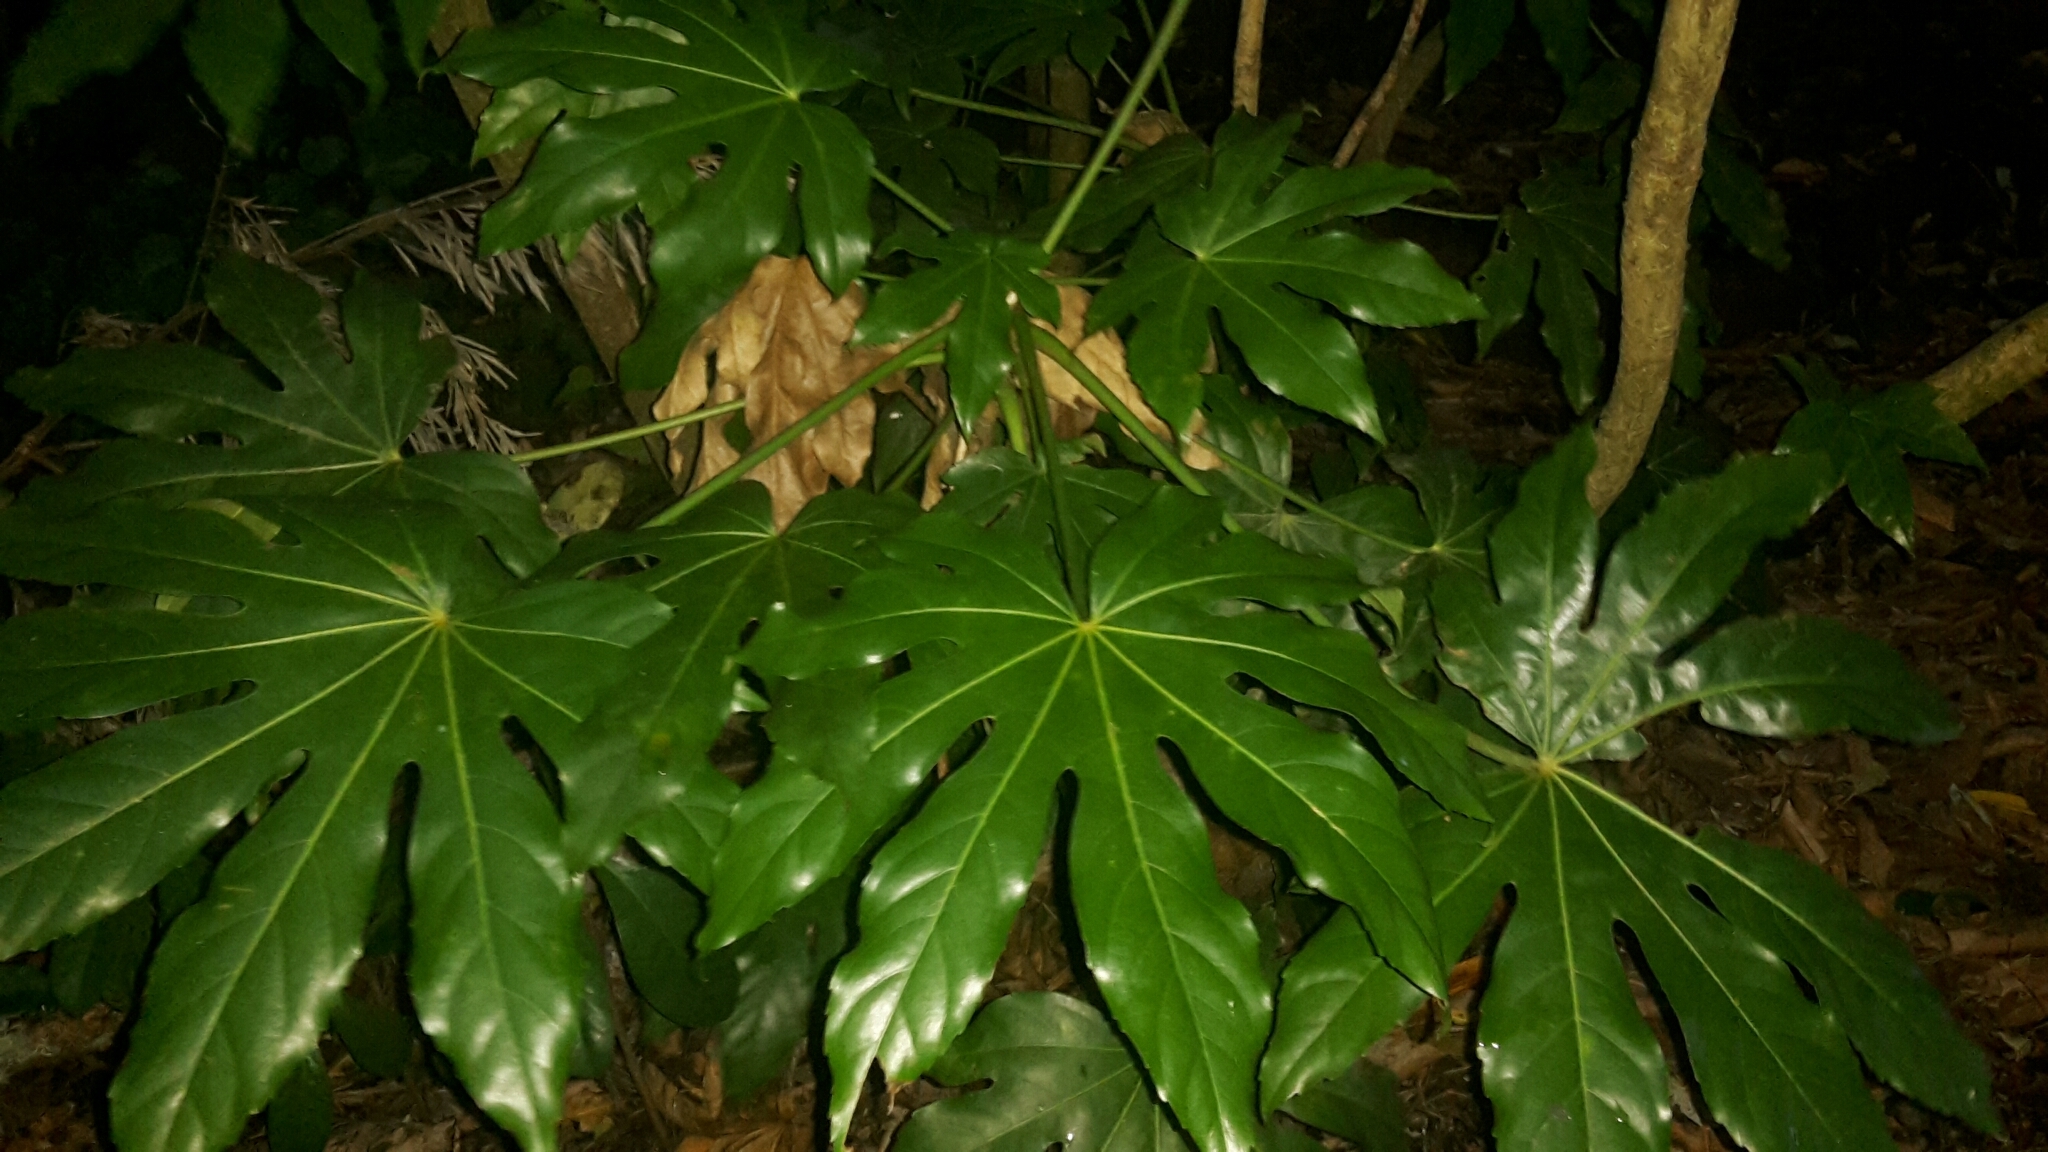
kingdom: Plantae
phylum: Tracheophyta
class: Magnoliopsida
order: Apiales
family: Araliaceae
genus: Fatsia
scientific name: Fatsia japonica
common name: Fatsia
